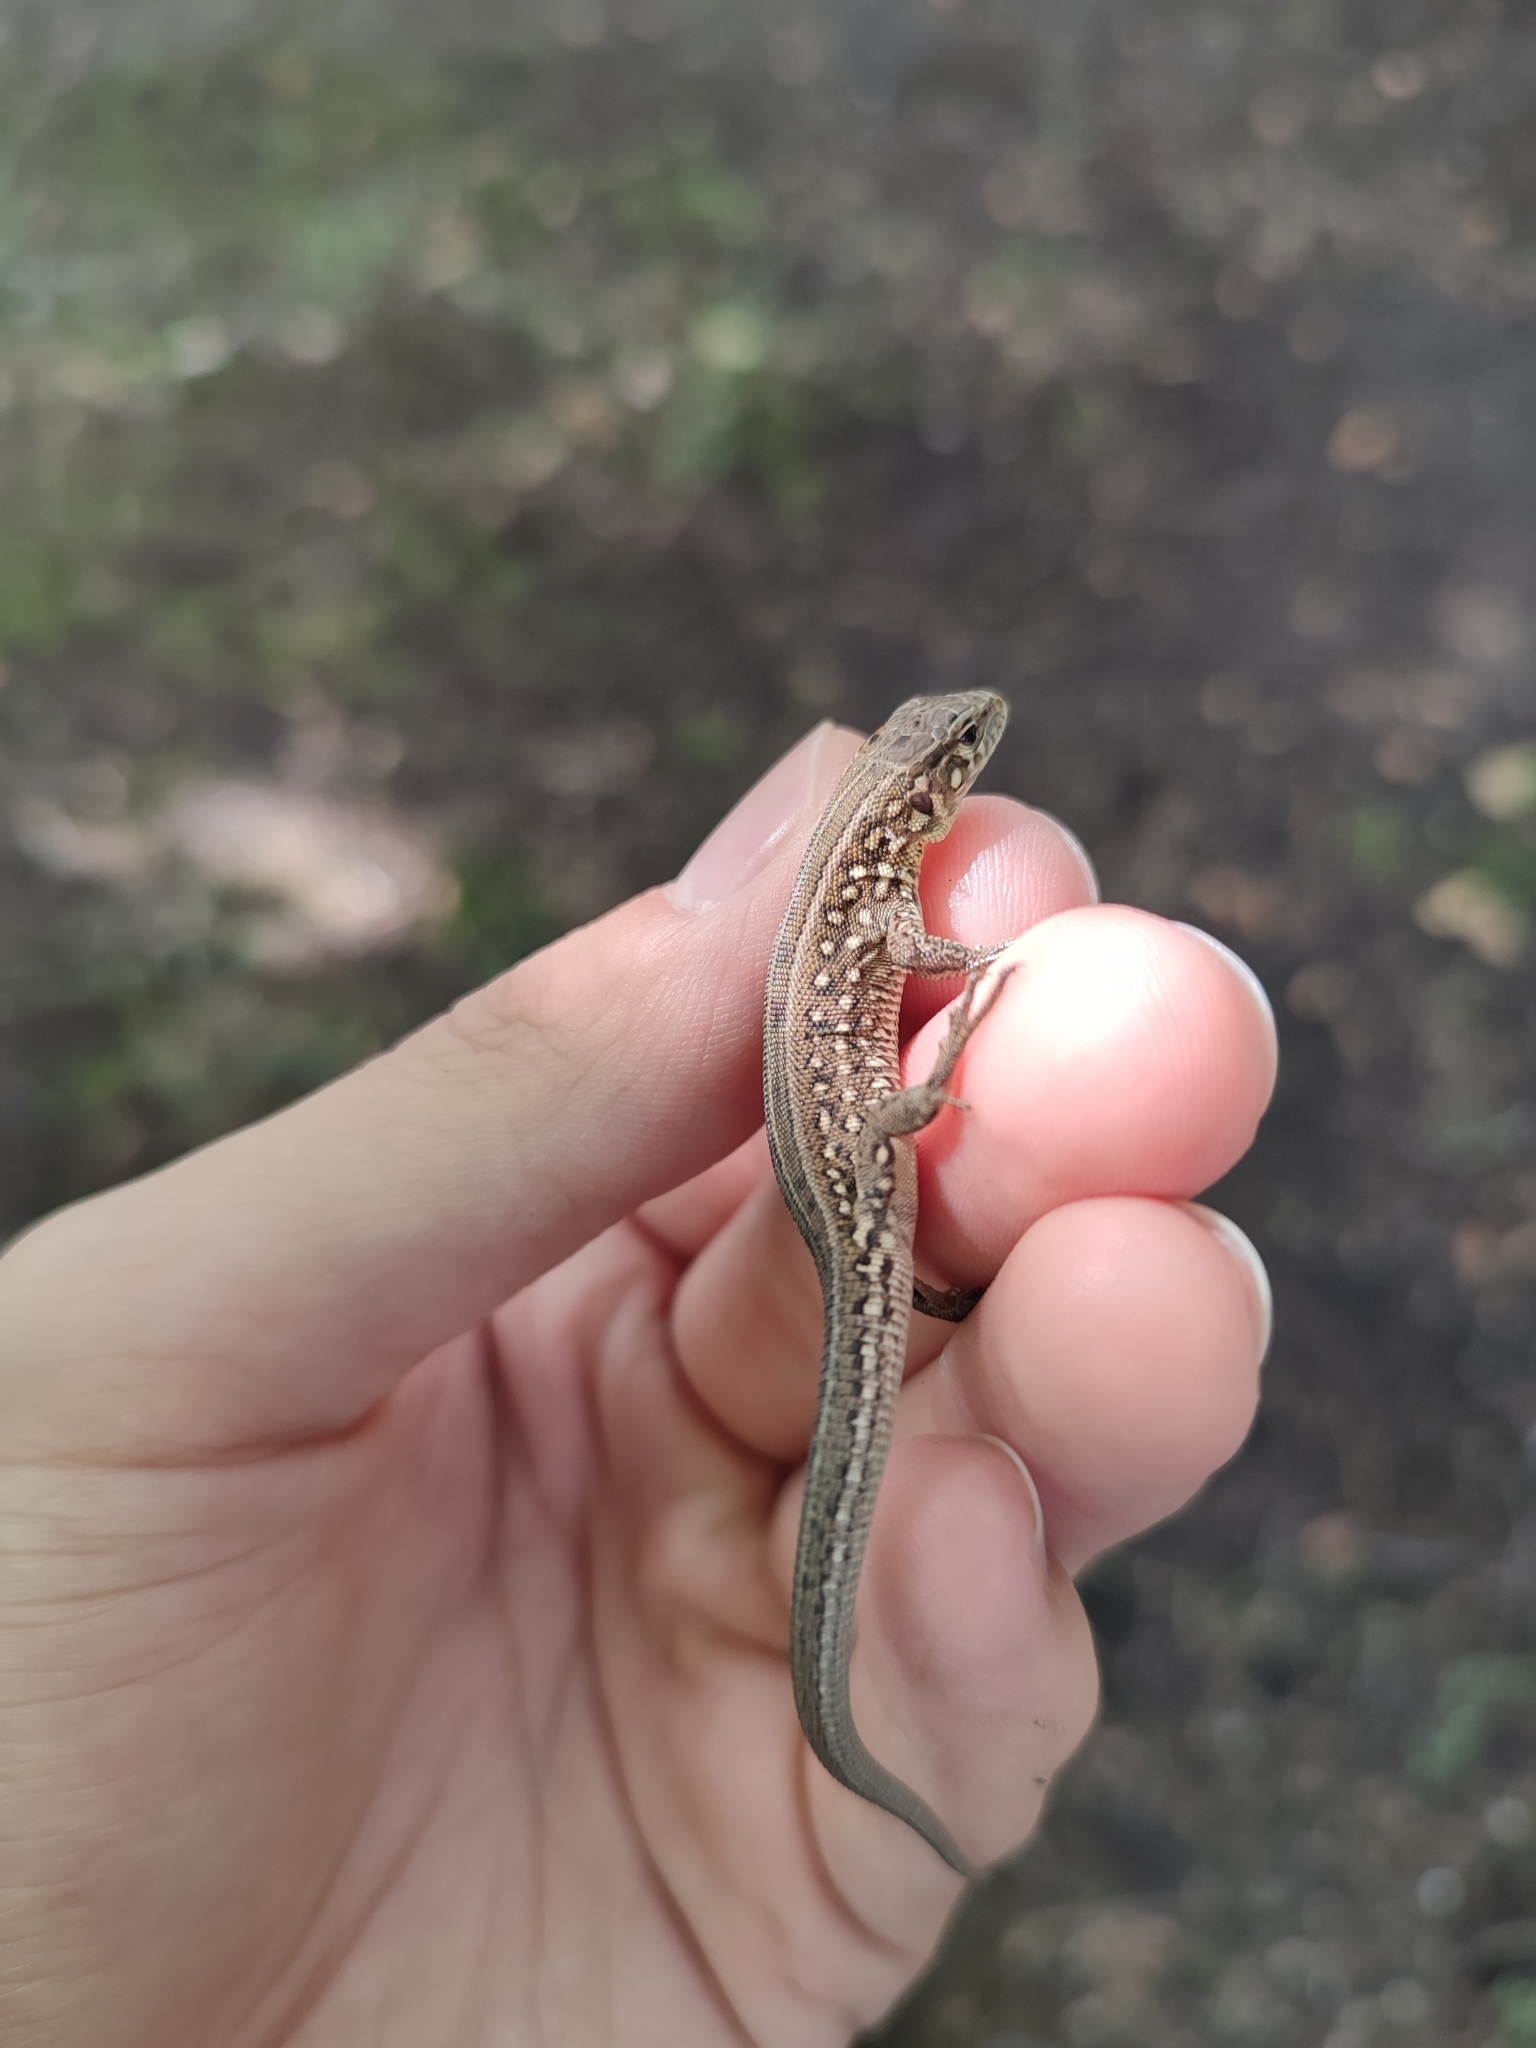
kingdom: Animalia
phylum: Chordata
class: Squamata
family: Lacertidae
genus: Lacerta
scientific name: Lacerta agilis
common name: Sand lizard
